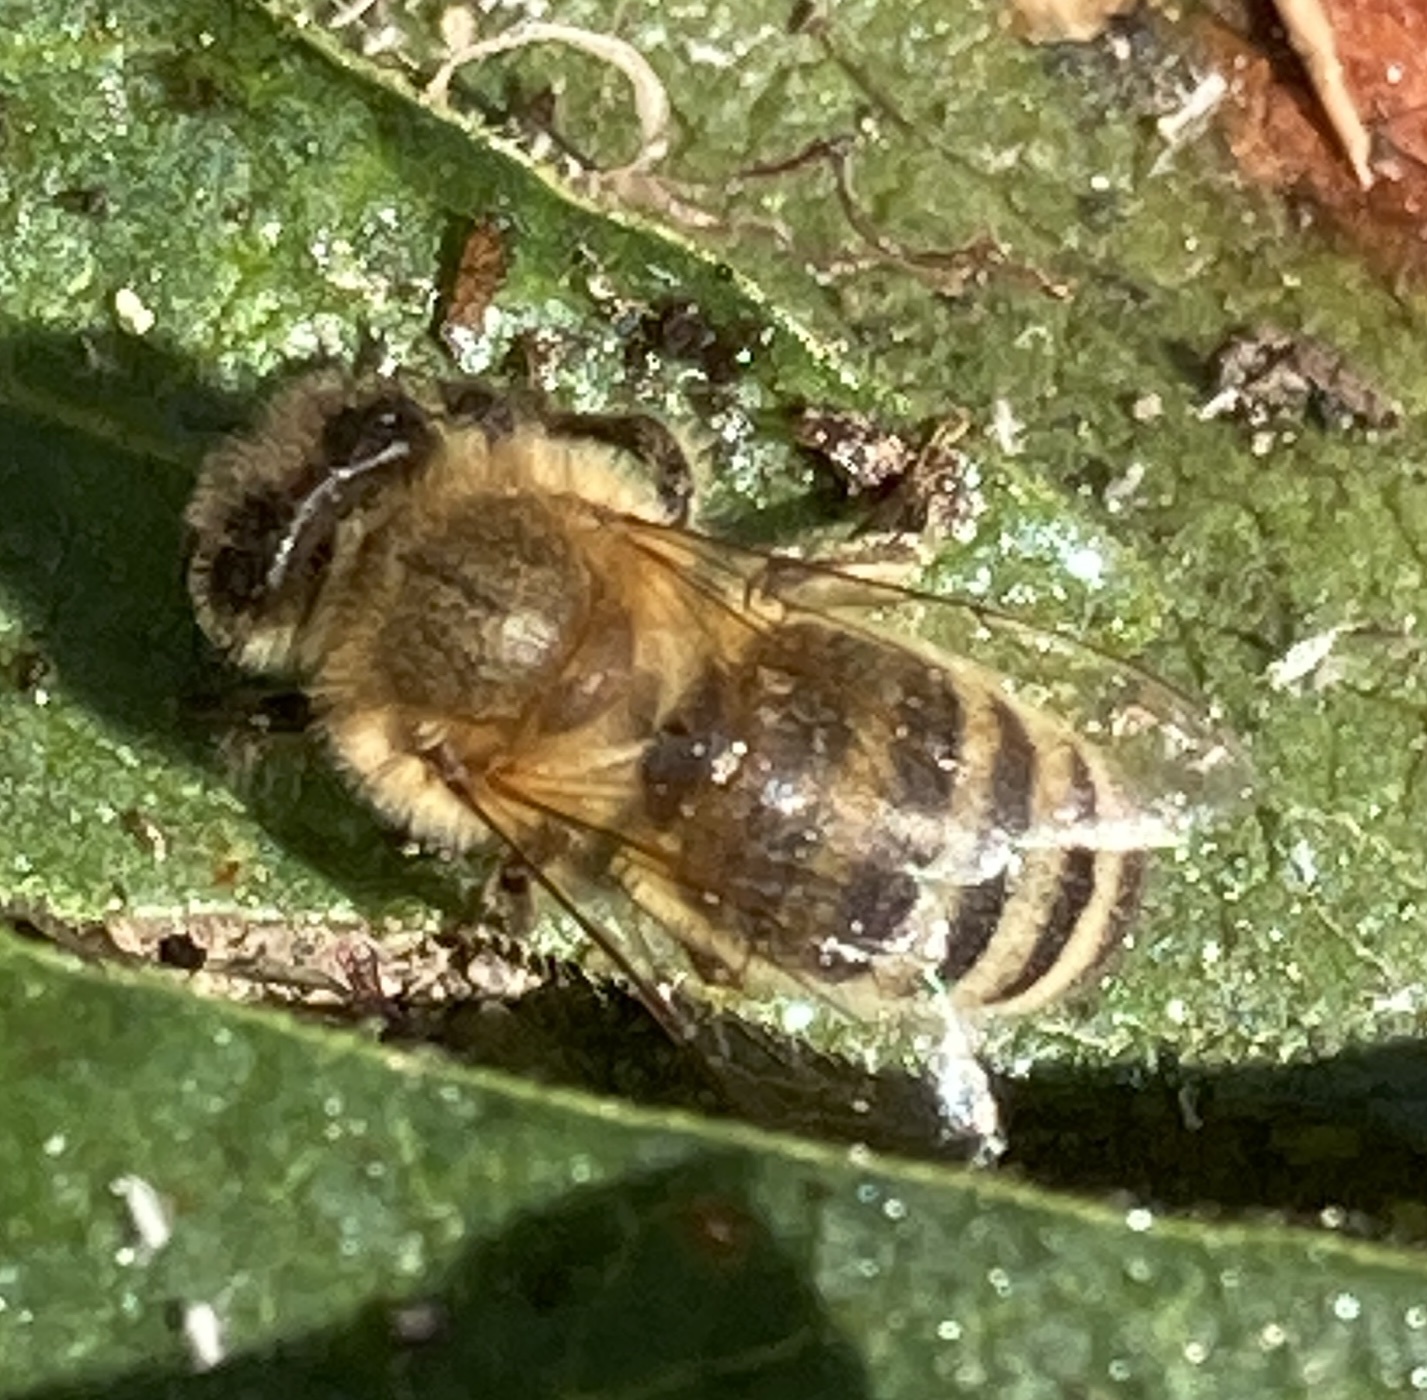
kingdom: Animalia
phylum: Arthropoda
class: Insecta
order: Hymenoptera
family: Apidae
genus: Apis
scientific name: Apis mellifera
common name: Honey bee
